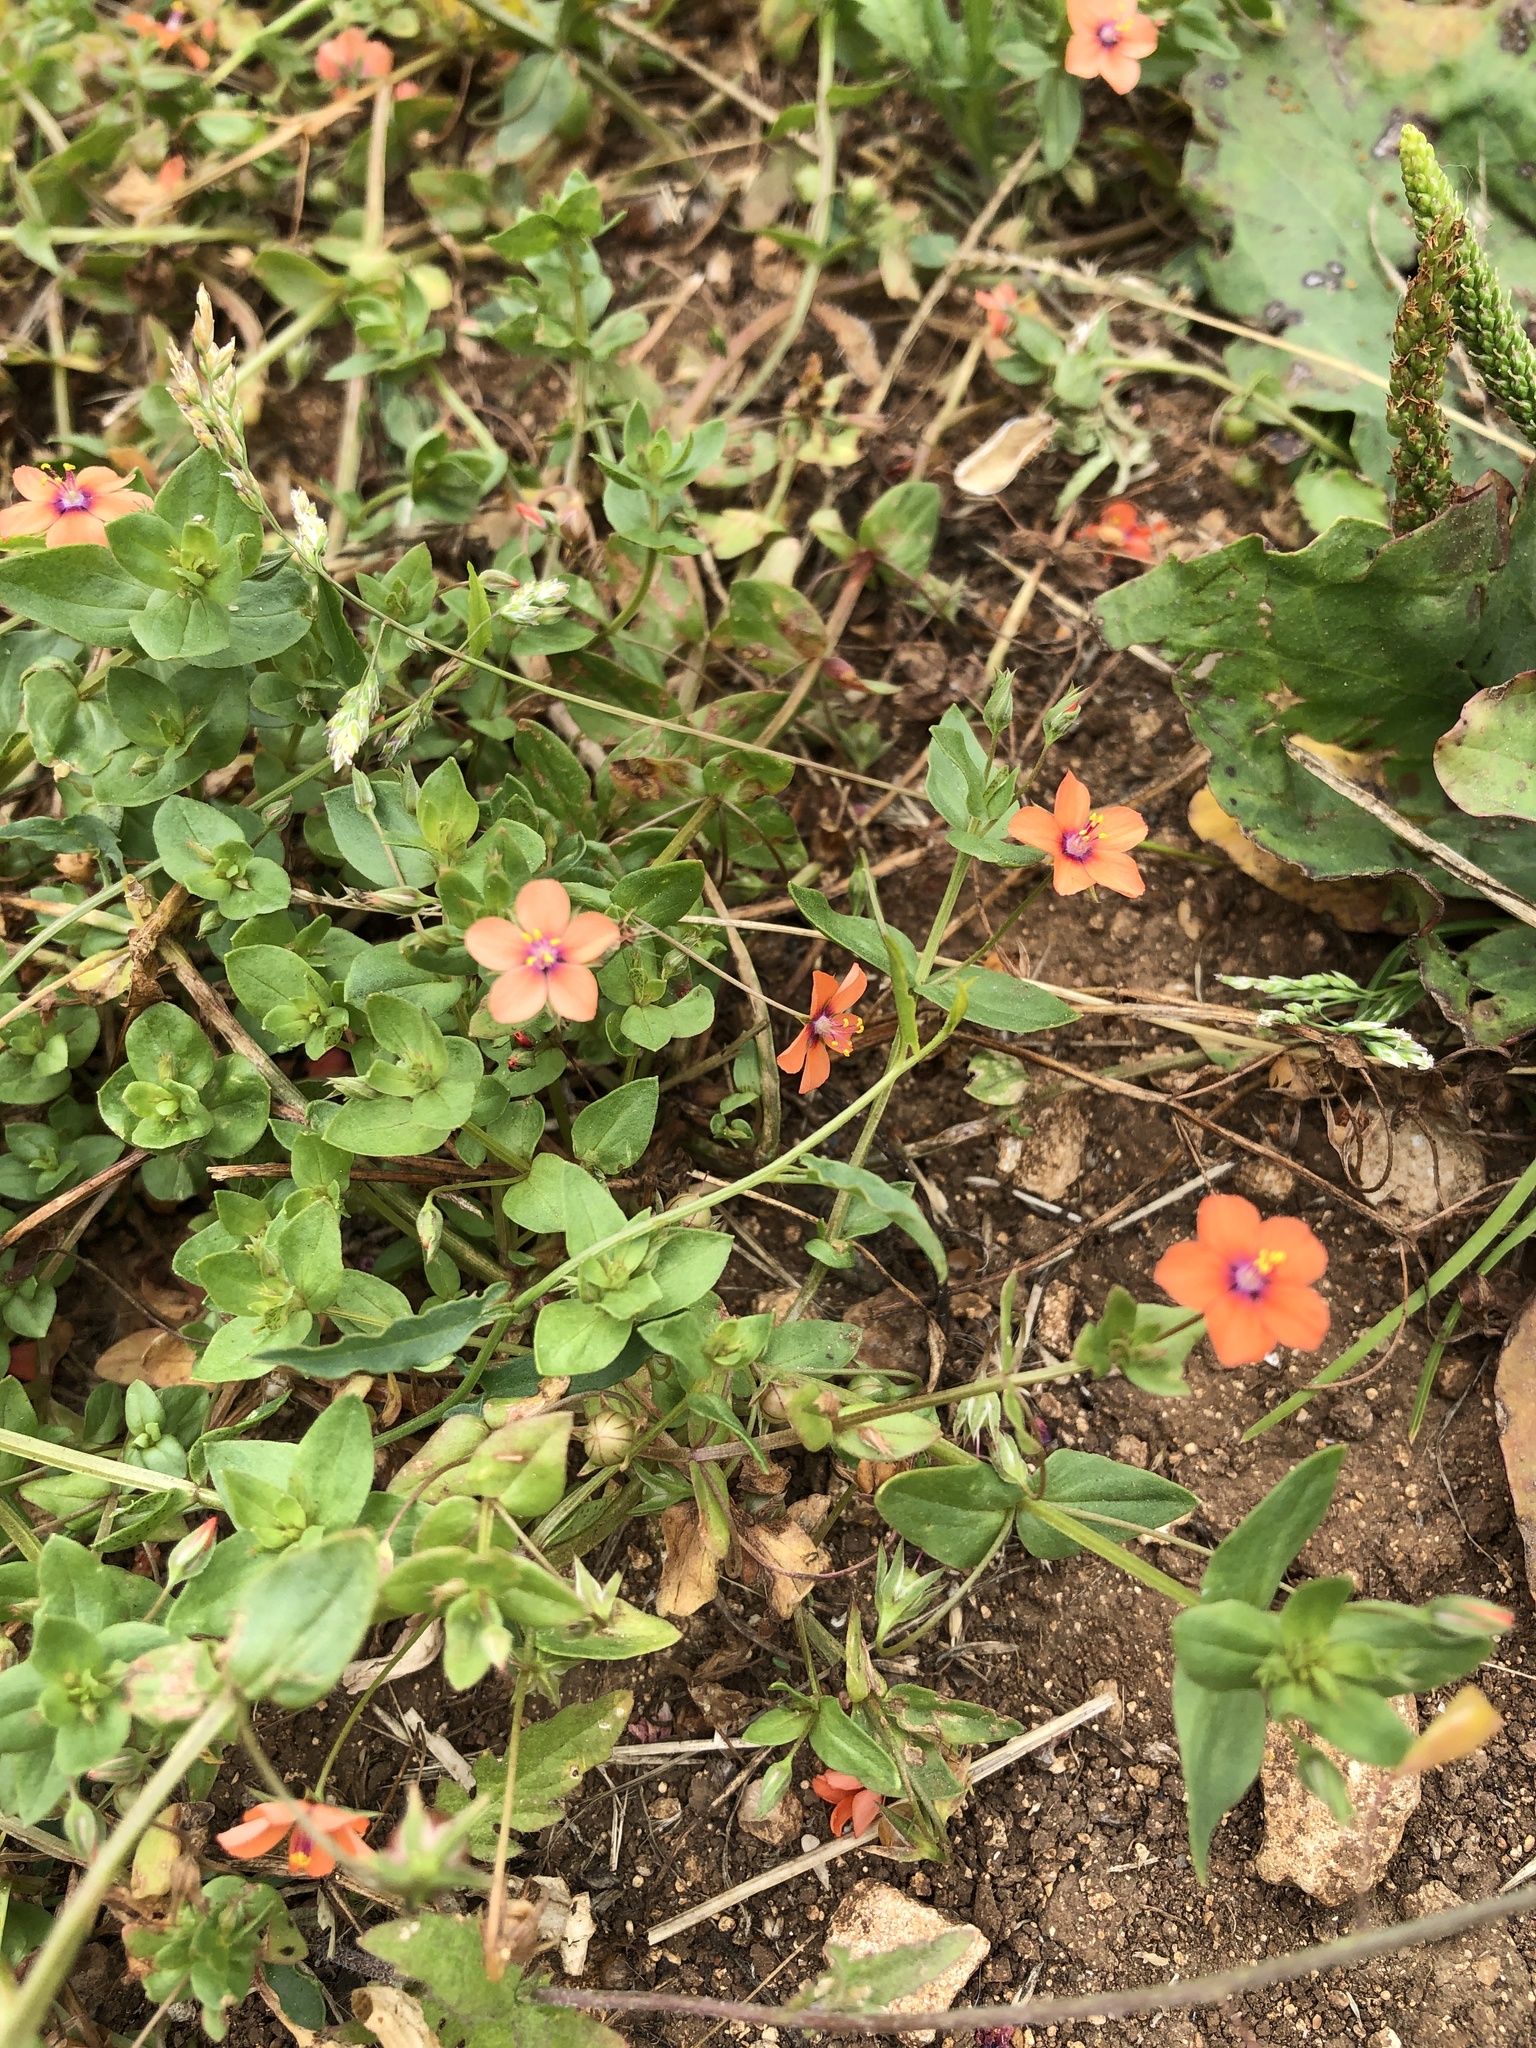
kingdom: Plantae
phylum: Tracheophyta
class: Magnoliopsida
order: Ericales
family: Primulaceae
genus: Lysimachia
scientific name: Lysimachia arvensis
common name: Scarlet pimpernel
